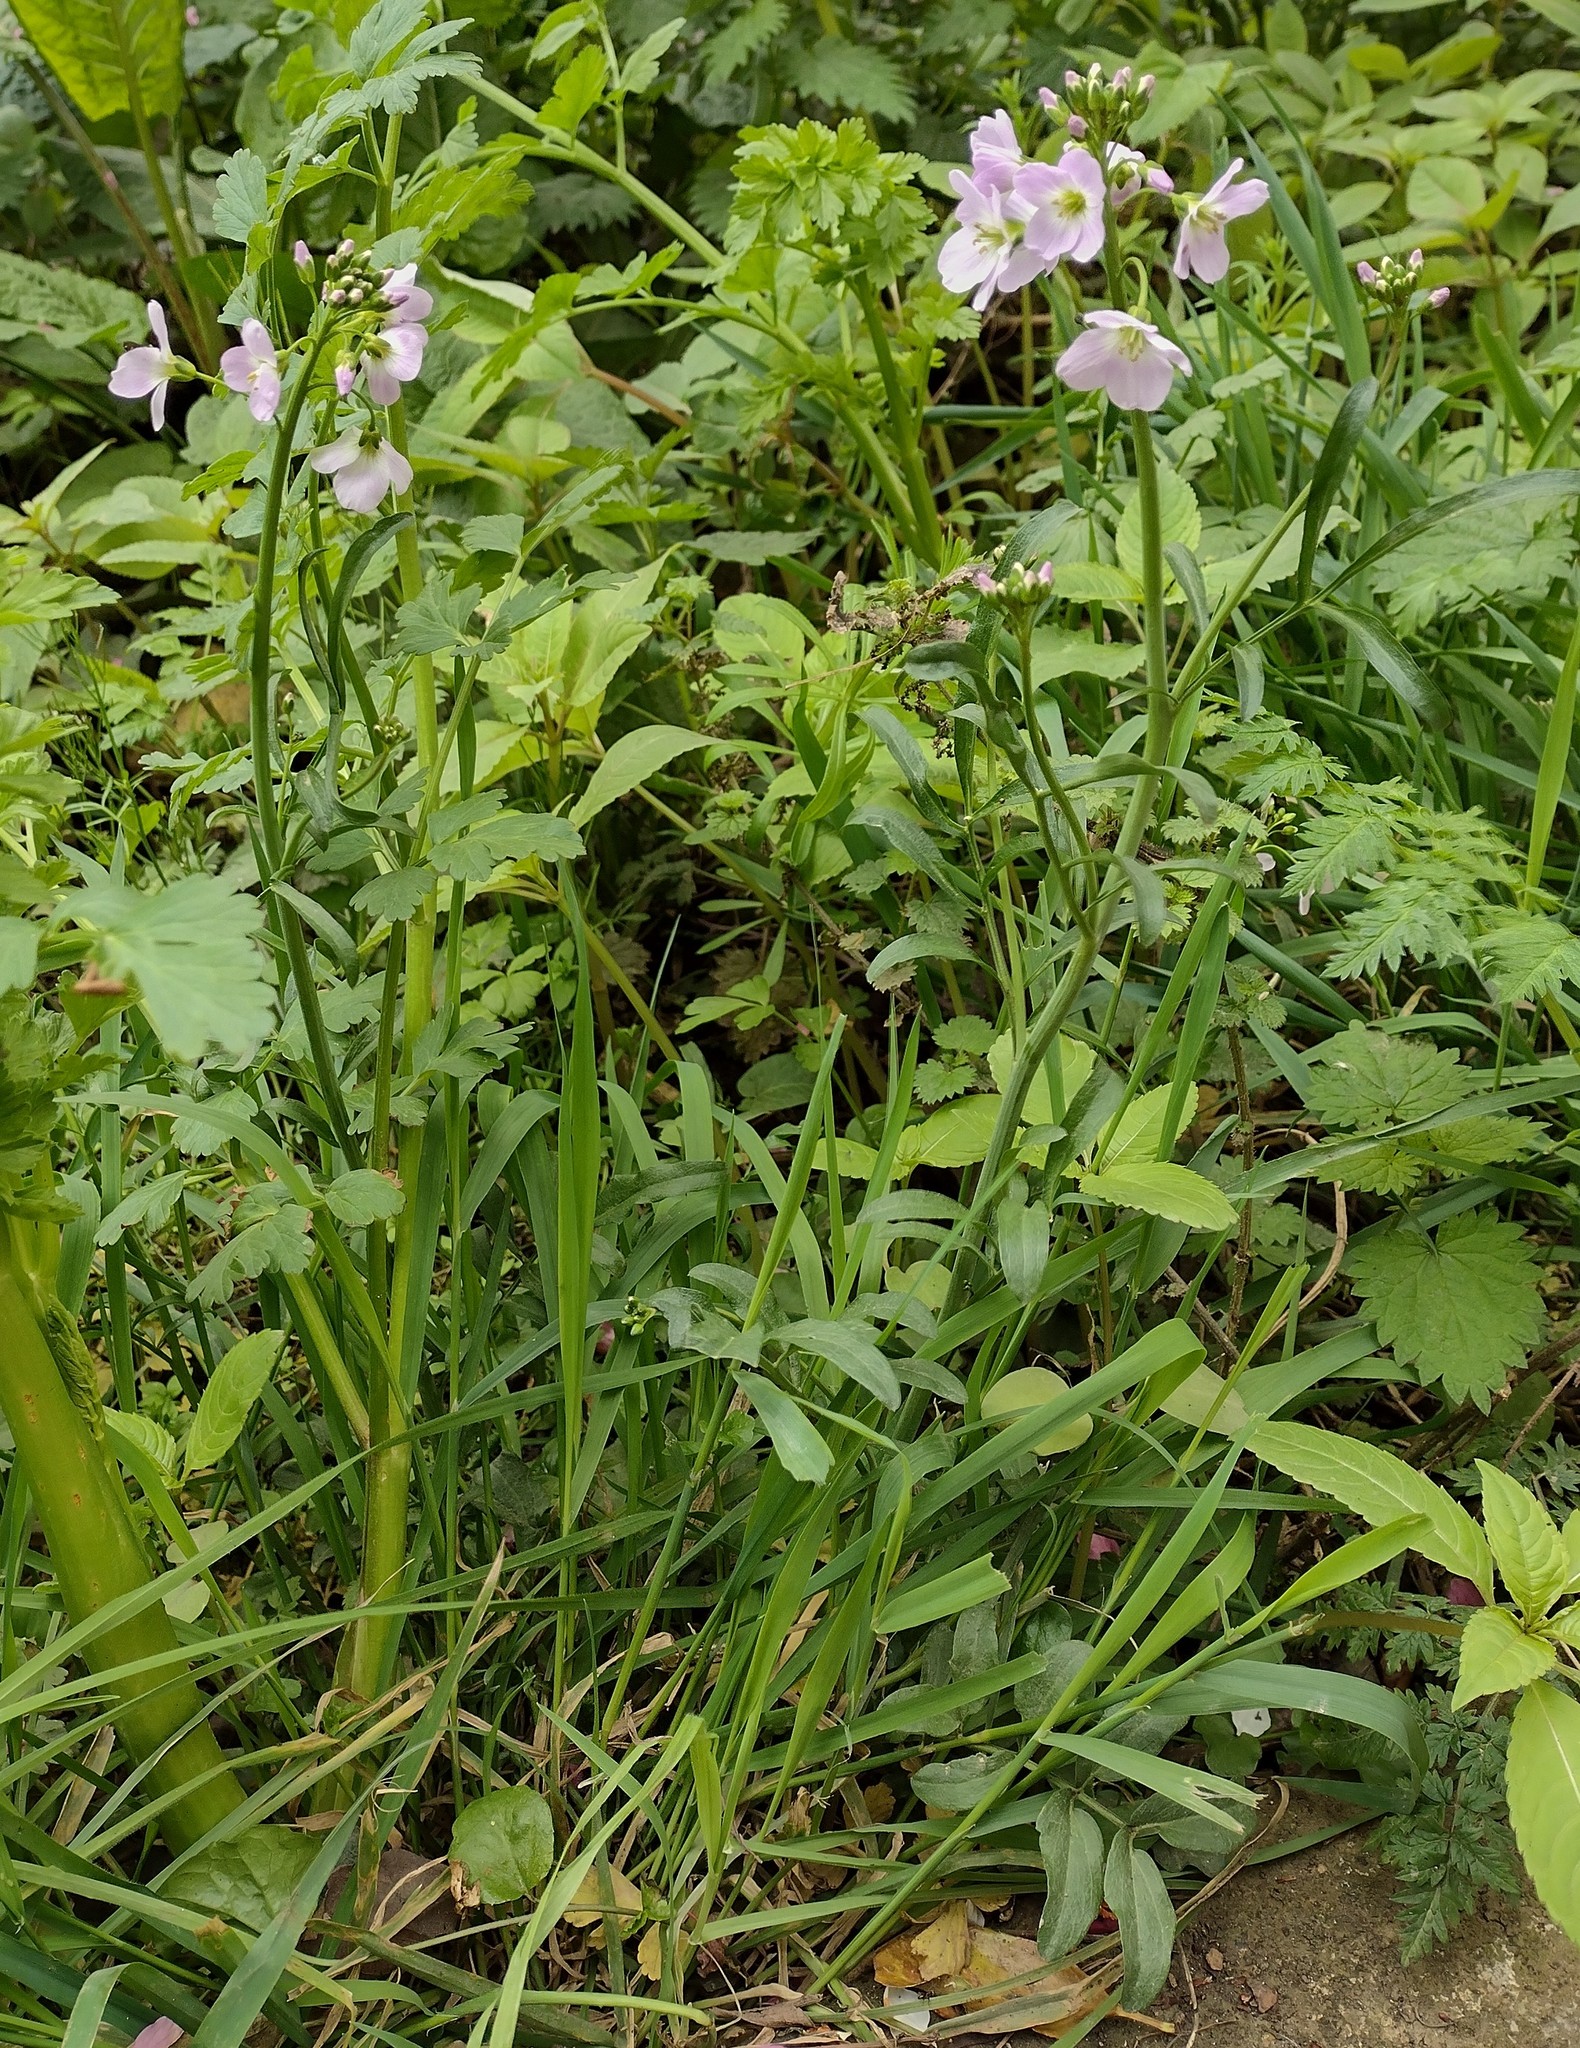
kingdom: Plantae
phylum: Tracheophyta
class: Magnoliopsida
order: Brassicales
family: Brassicaceae
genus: Cardamine
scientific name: Cardamine pratensis
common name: Cuckoo flower
